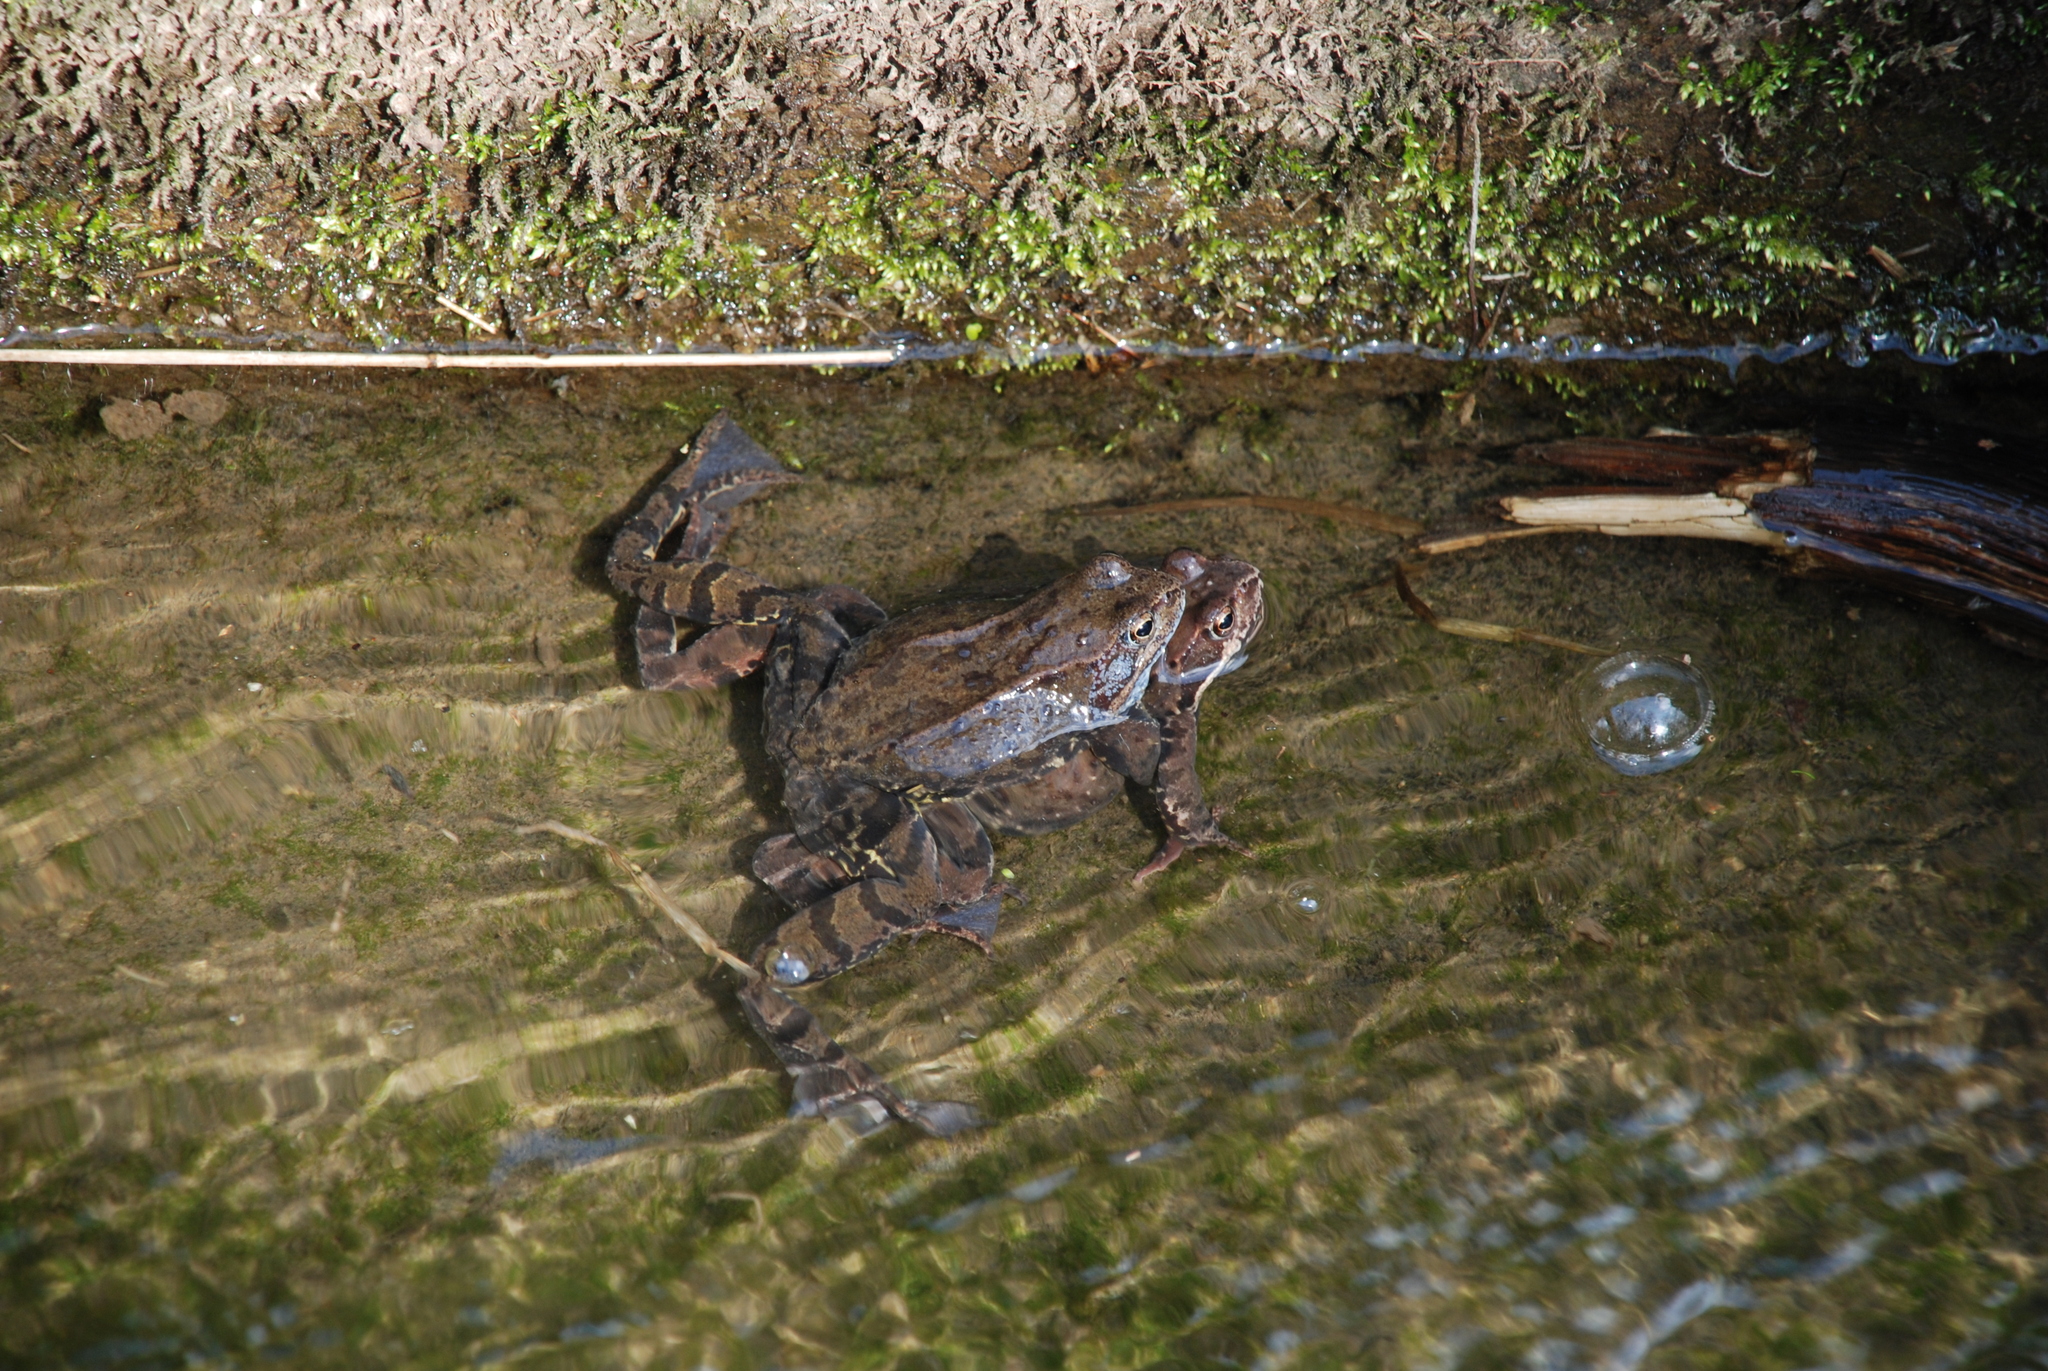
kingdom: Animalia
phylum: Chordata
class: Amphibia
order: Anura
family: Ranidae
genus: Rana
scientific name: Rana temporaria
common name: Common frog
